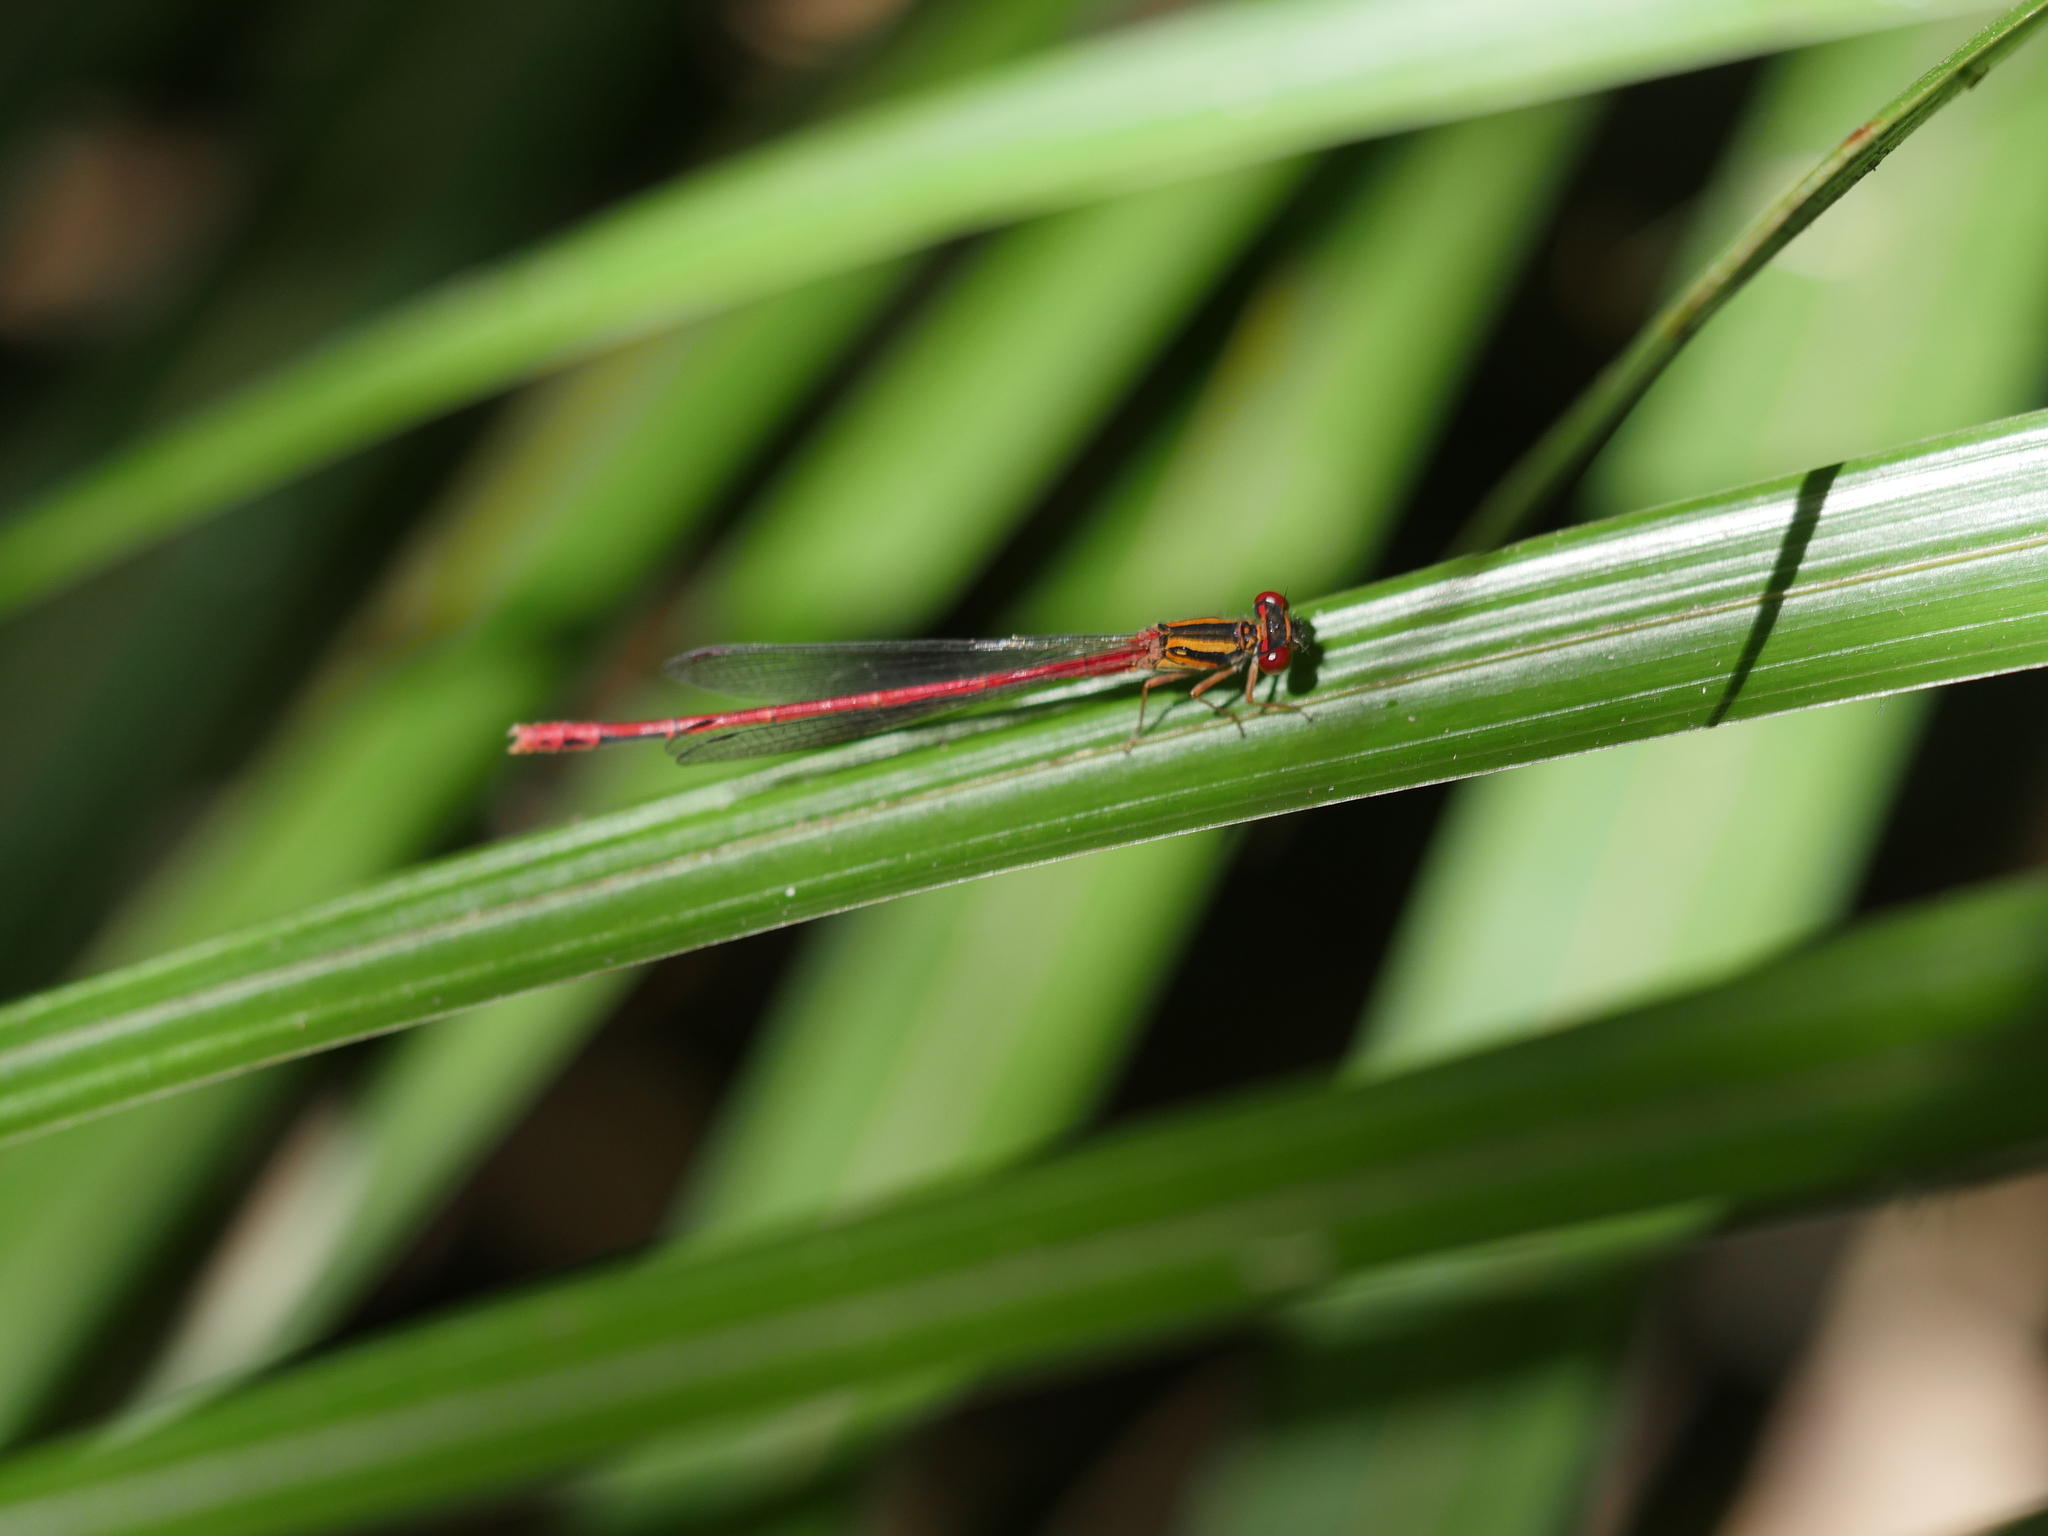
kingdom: Animalia
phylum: Arthropoda
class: Insecta
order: Odonata
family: Coenagrionidae
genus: Xanthocnemis
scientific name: Xanthocnemis zealandica
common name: Common redcoat damselfly
